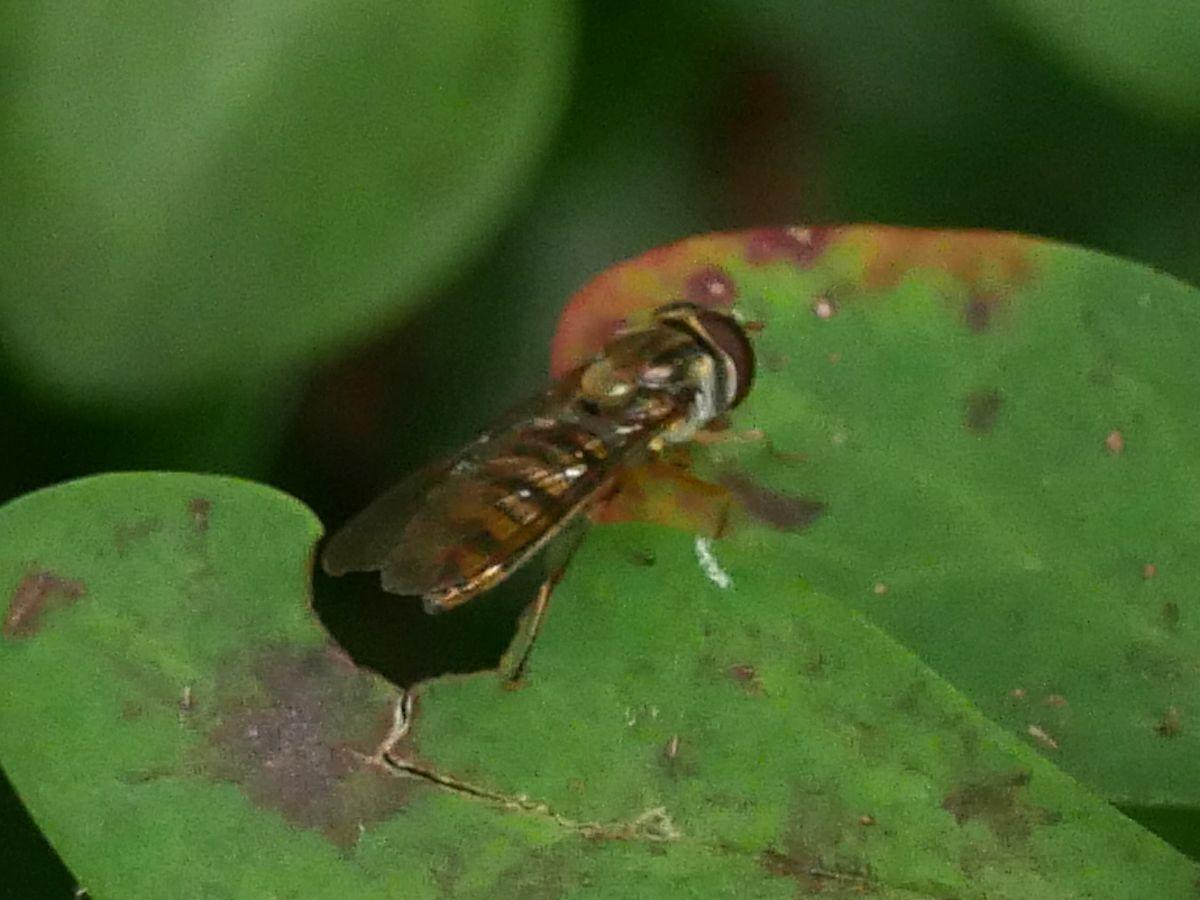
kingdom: Animalia
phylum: Arthropoda
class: Insecta
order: Diptera
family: Syrphidae
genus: Episyrphus
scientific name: Episyrphus balteatus
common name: Marmalade hoverfly
